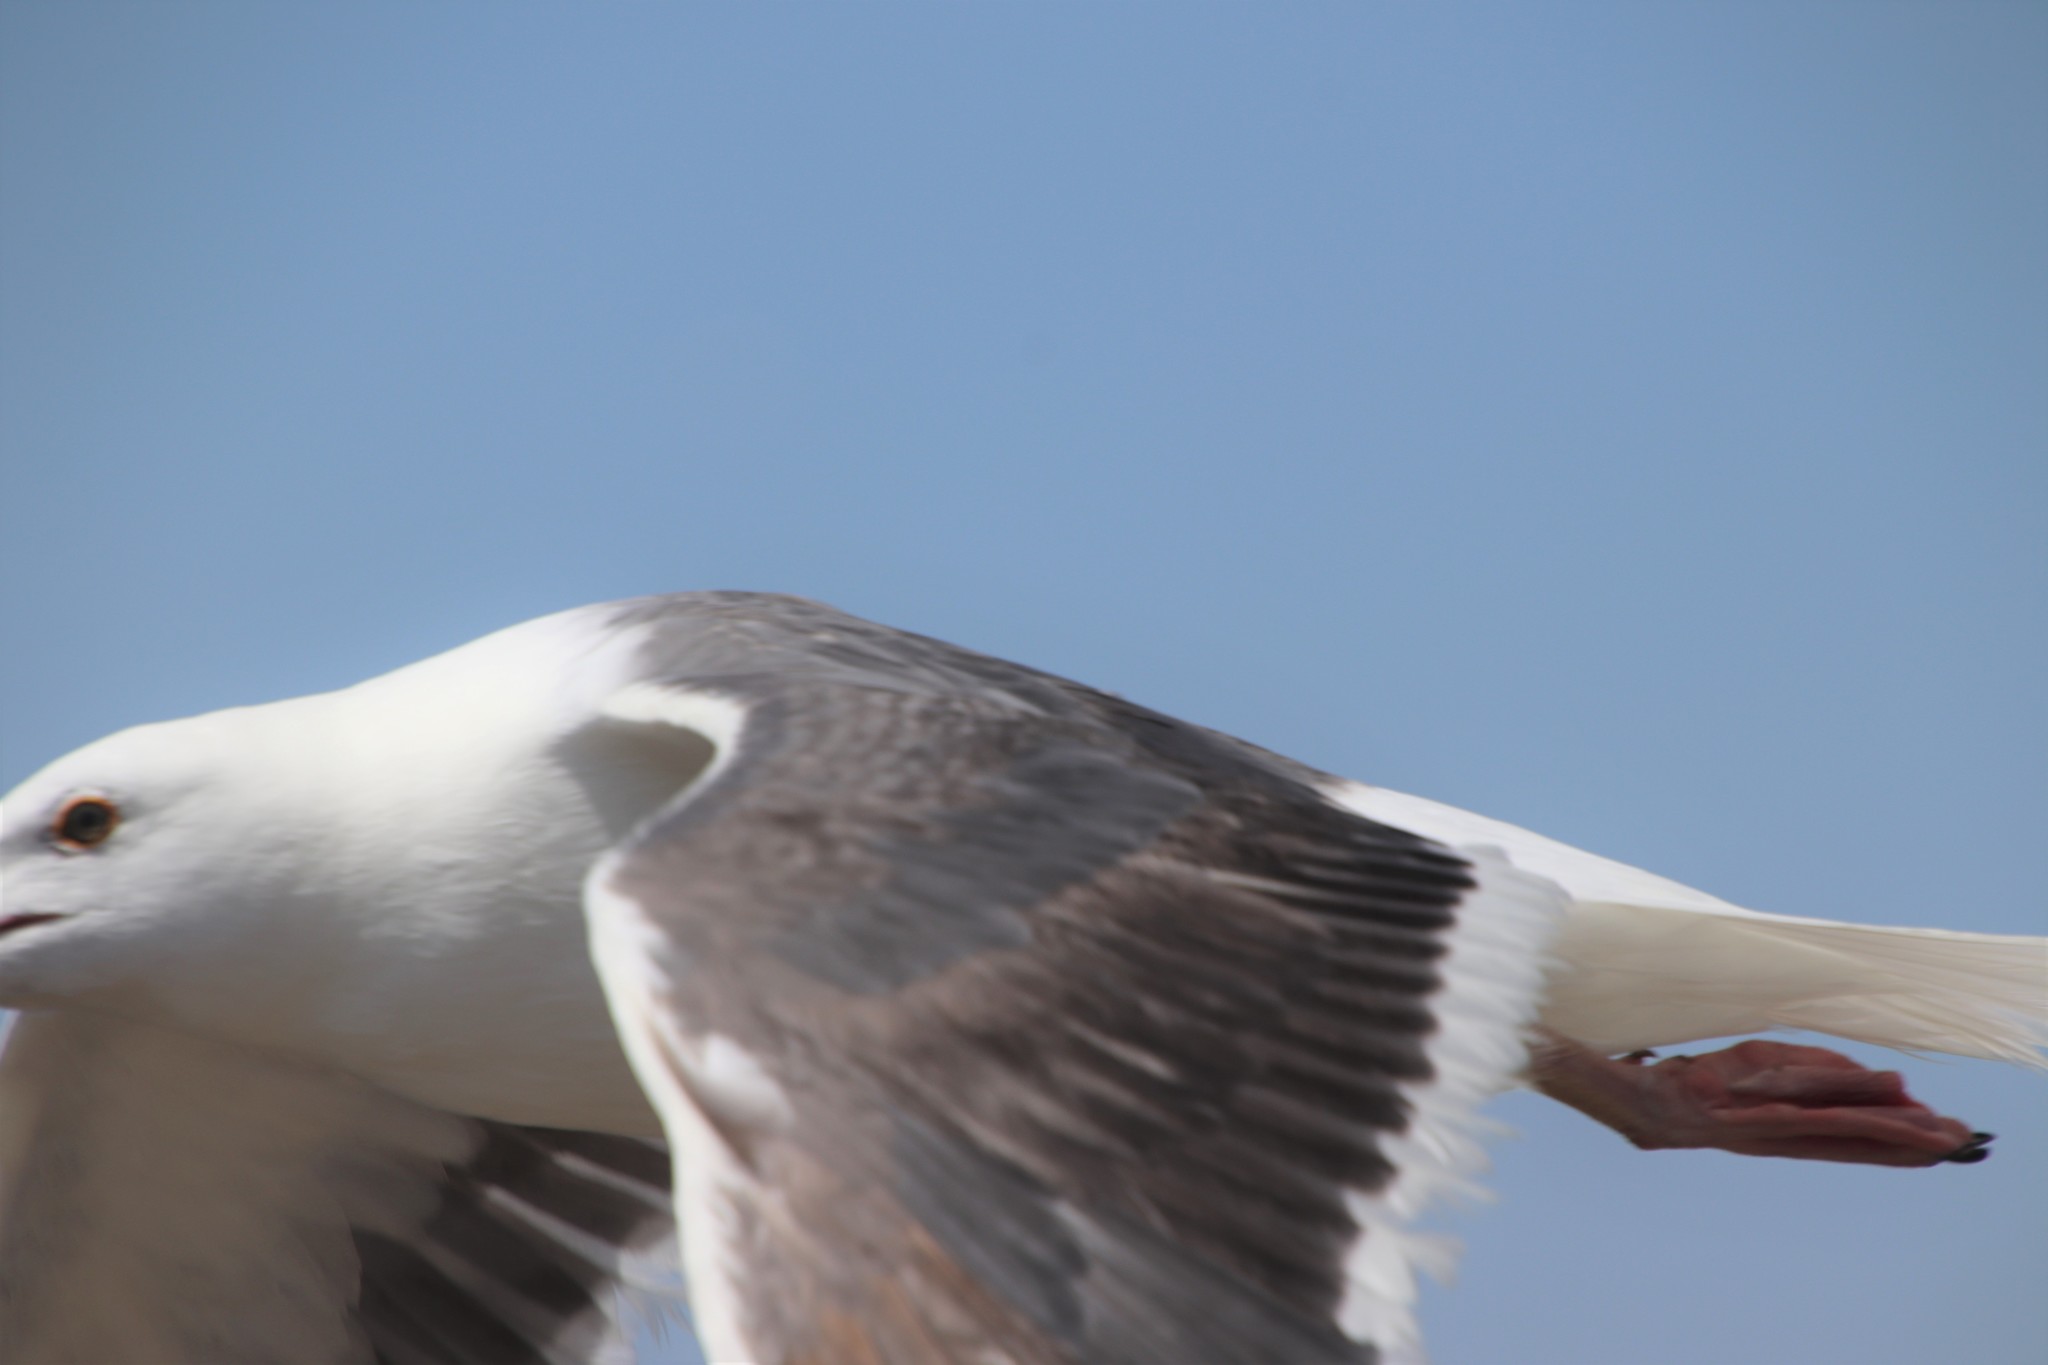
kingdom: Animalia
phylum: Chordata
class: Aves
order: Charadriiformes
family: Laridae
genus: Larus
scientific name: Larus occidentalis
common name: Western gull
